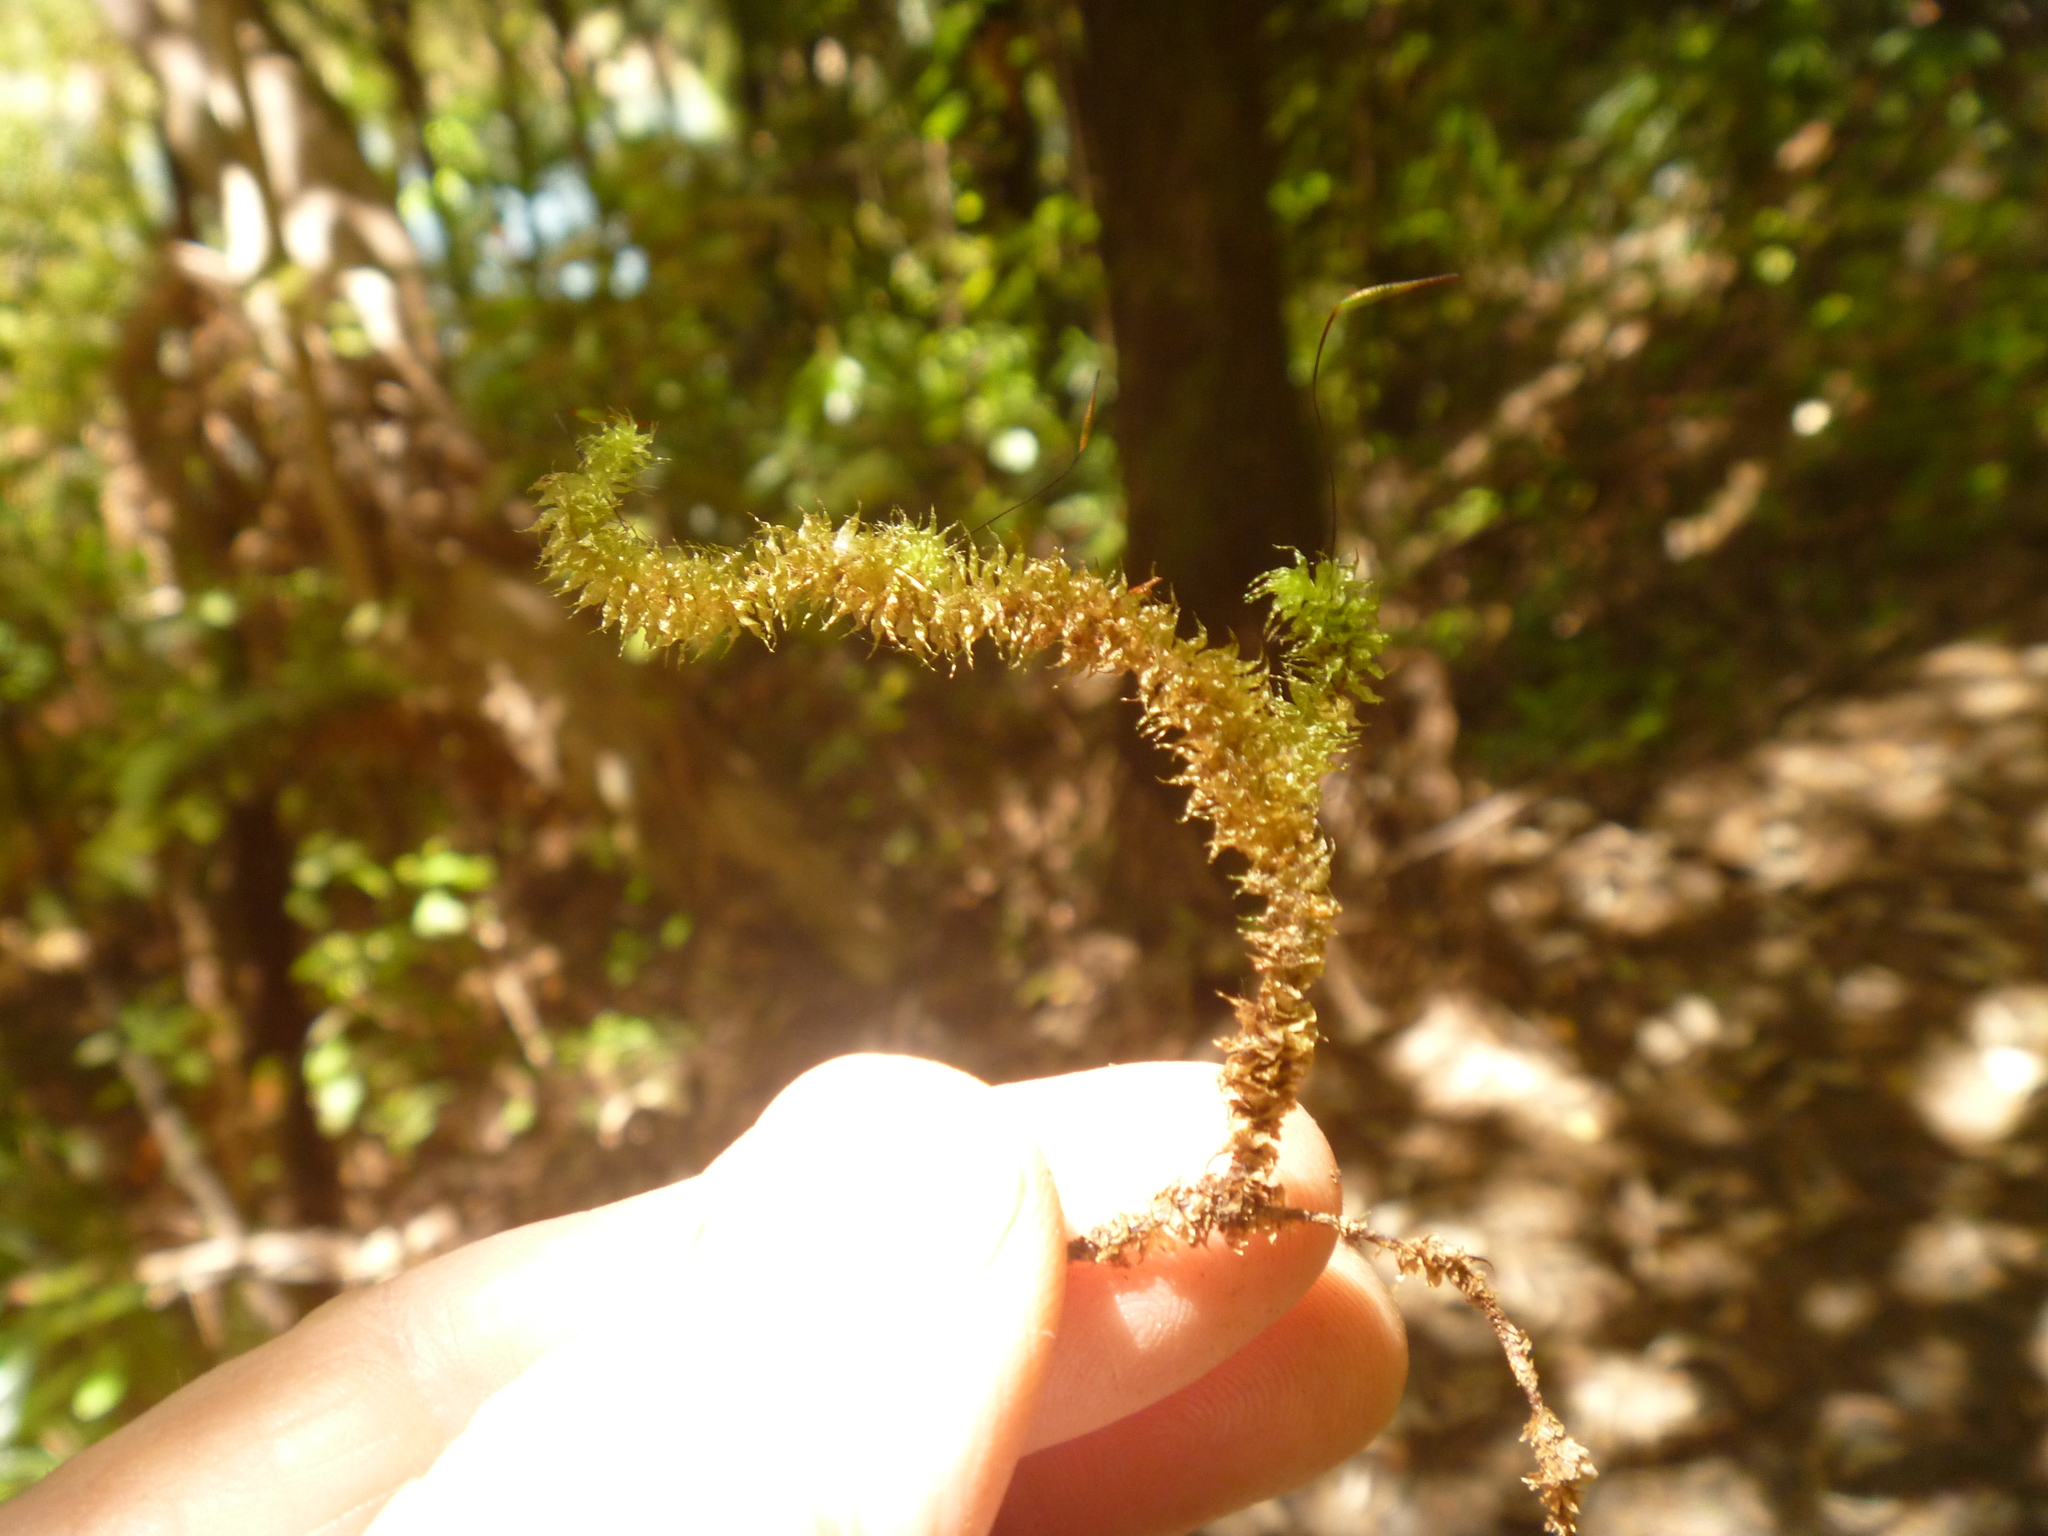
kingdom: Plantae
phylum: Bryophyta
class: Bryopsida
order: Ptychomniales
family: Ptychomniaceae
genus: Ptychomnion
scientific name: Ptychomnion aciculare
